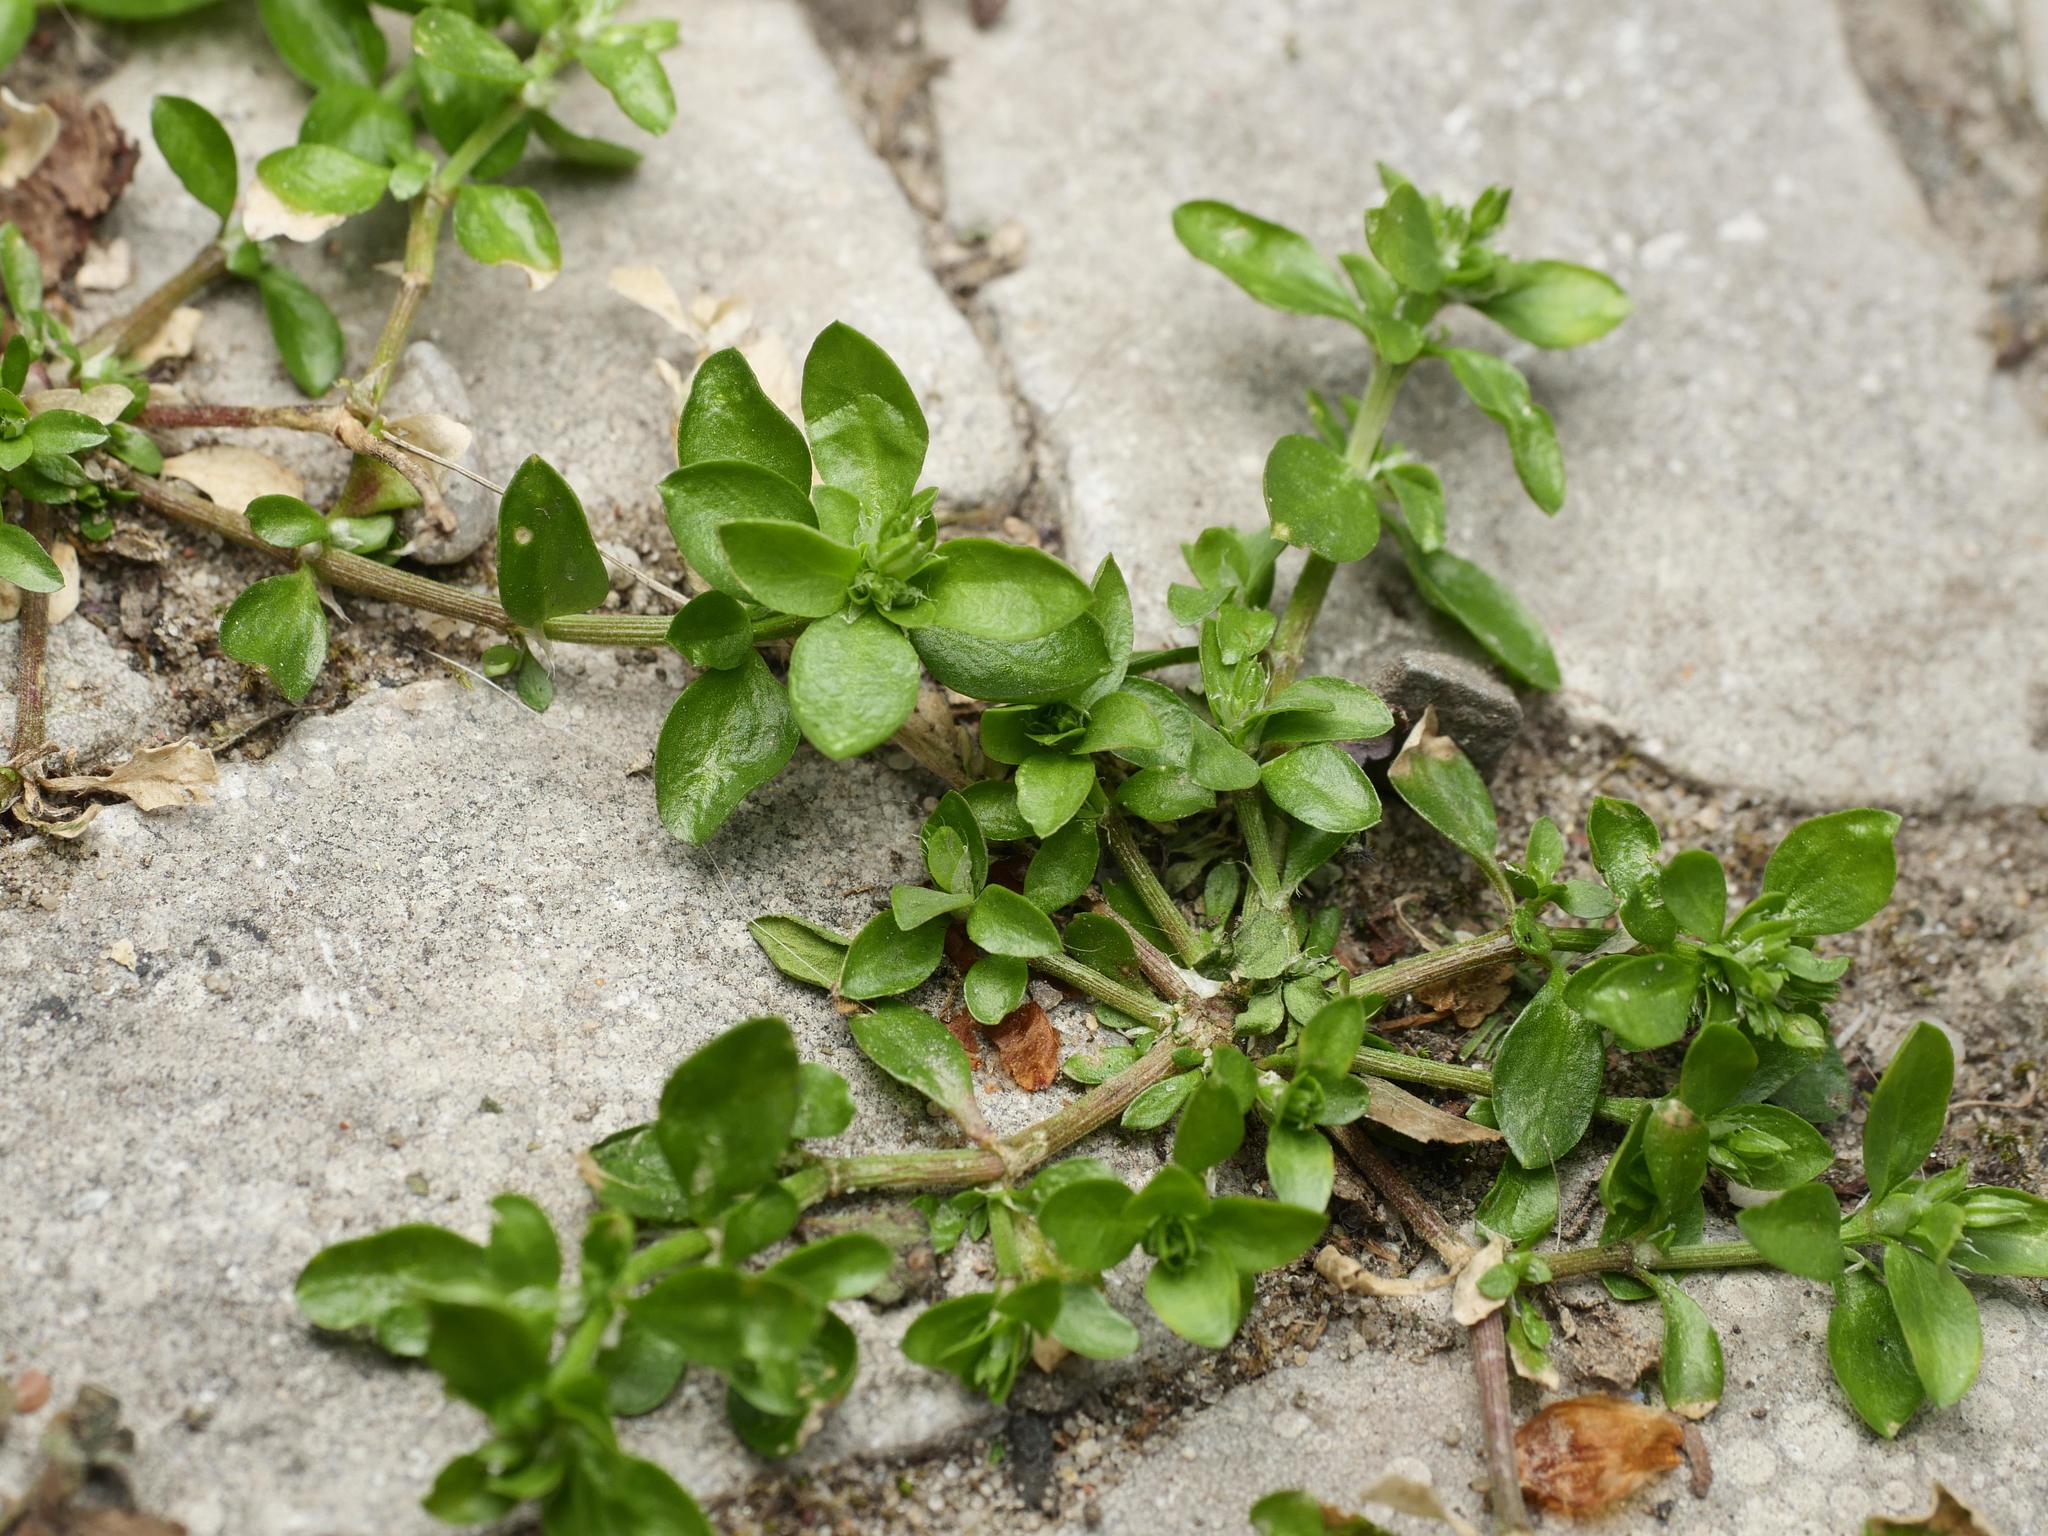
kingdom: Plantae
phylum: Tracheophyta
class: Magnoliopsida
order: Caryophyllales
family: Caryophyllaceae
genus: Polycarpon
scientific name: Polycarpon tetraphyllum
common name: Four-leaved all-seed
